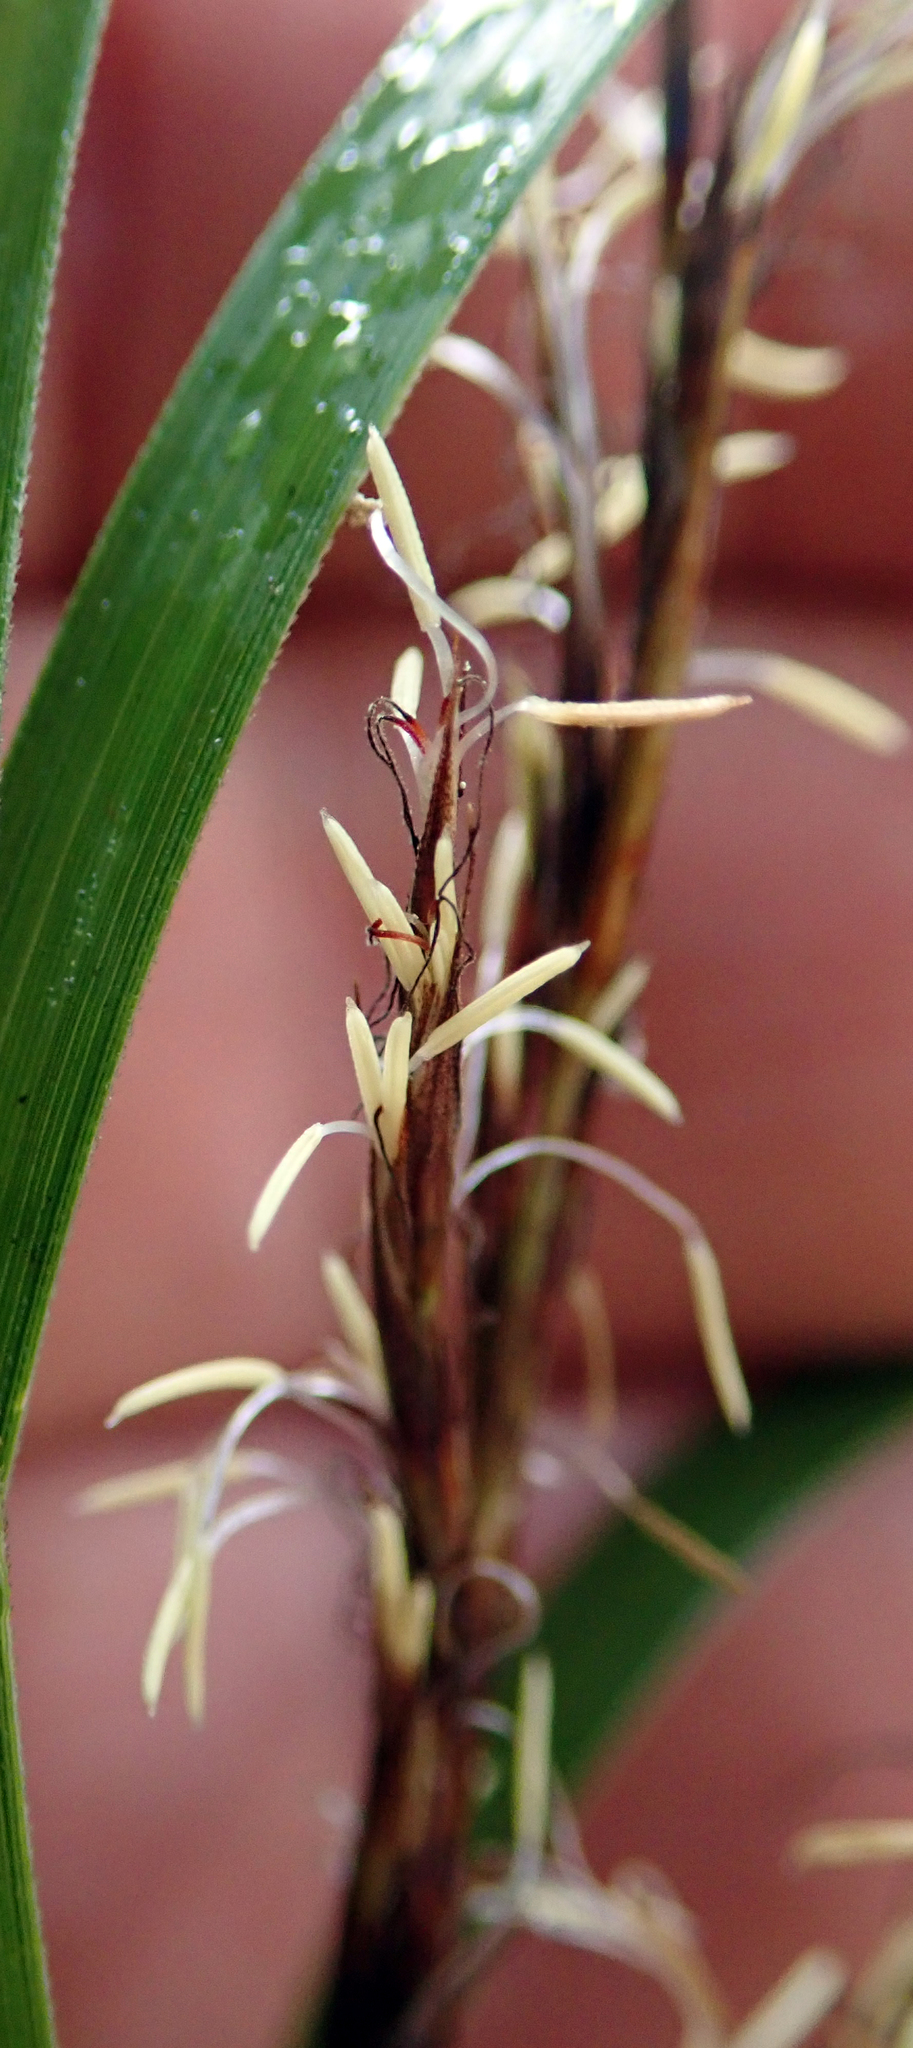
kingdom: Plantae
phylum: Tracheophyta
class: Liliopsida
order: Poales
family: Cyperaceae
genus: Gahnia
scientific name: Gahnia lacera
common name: Sawsedge
